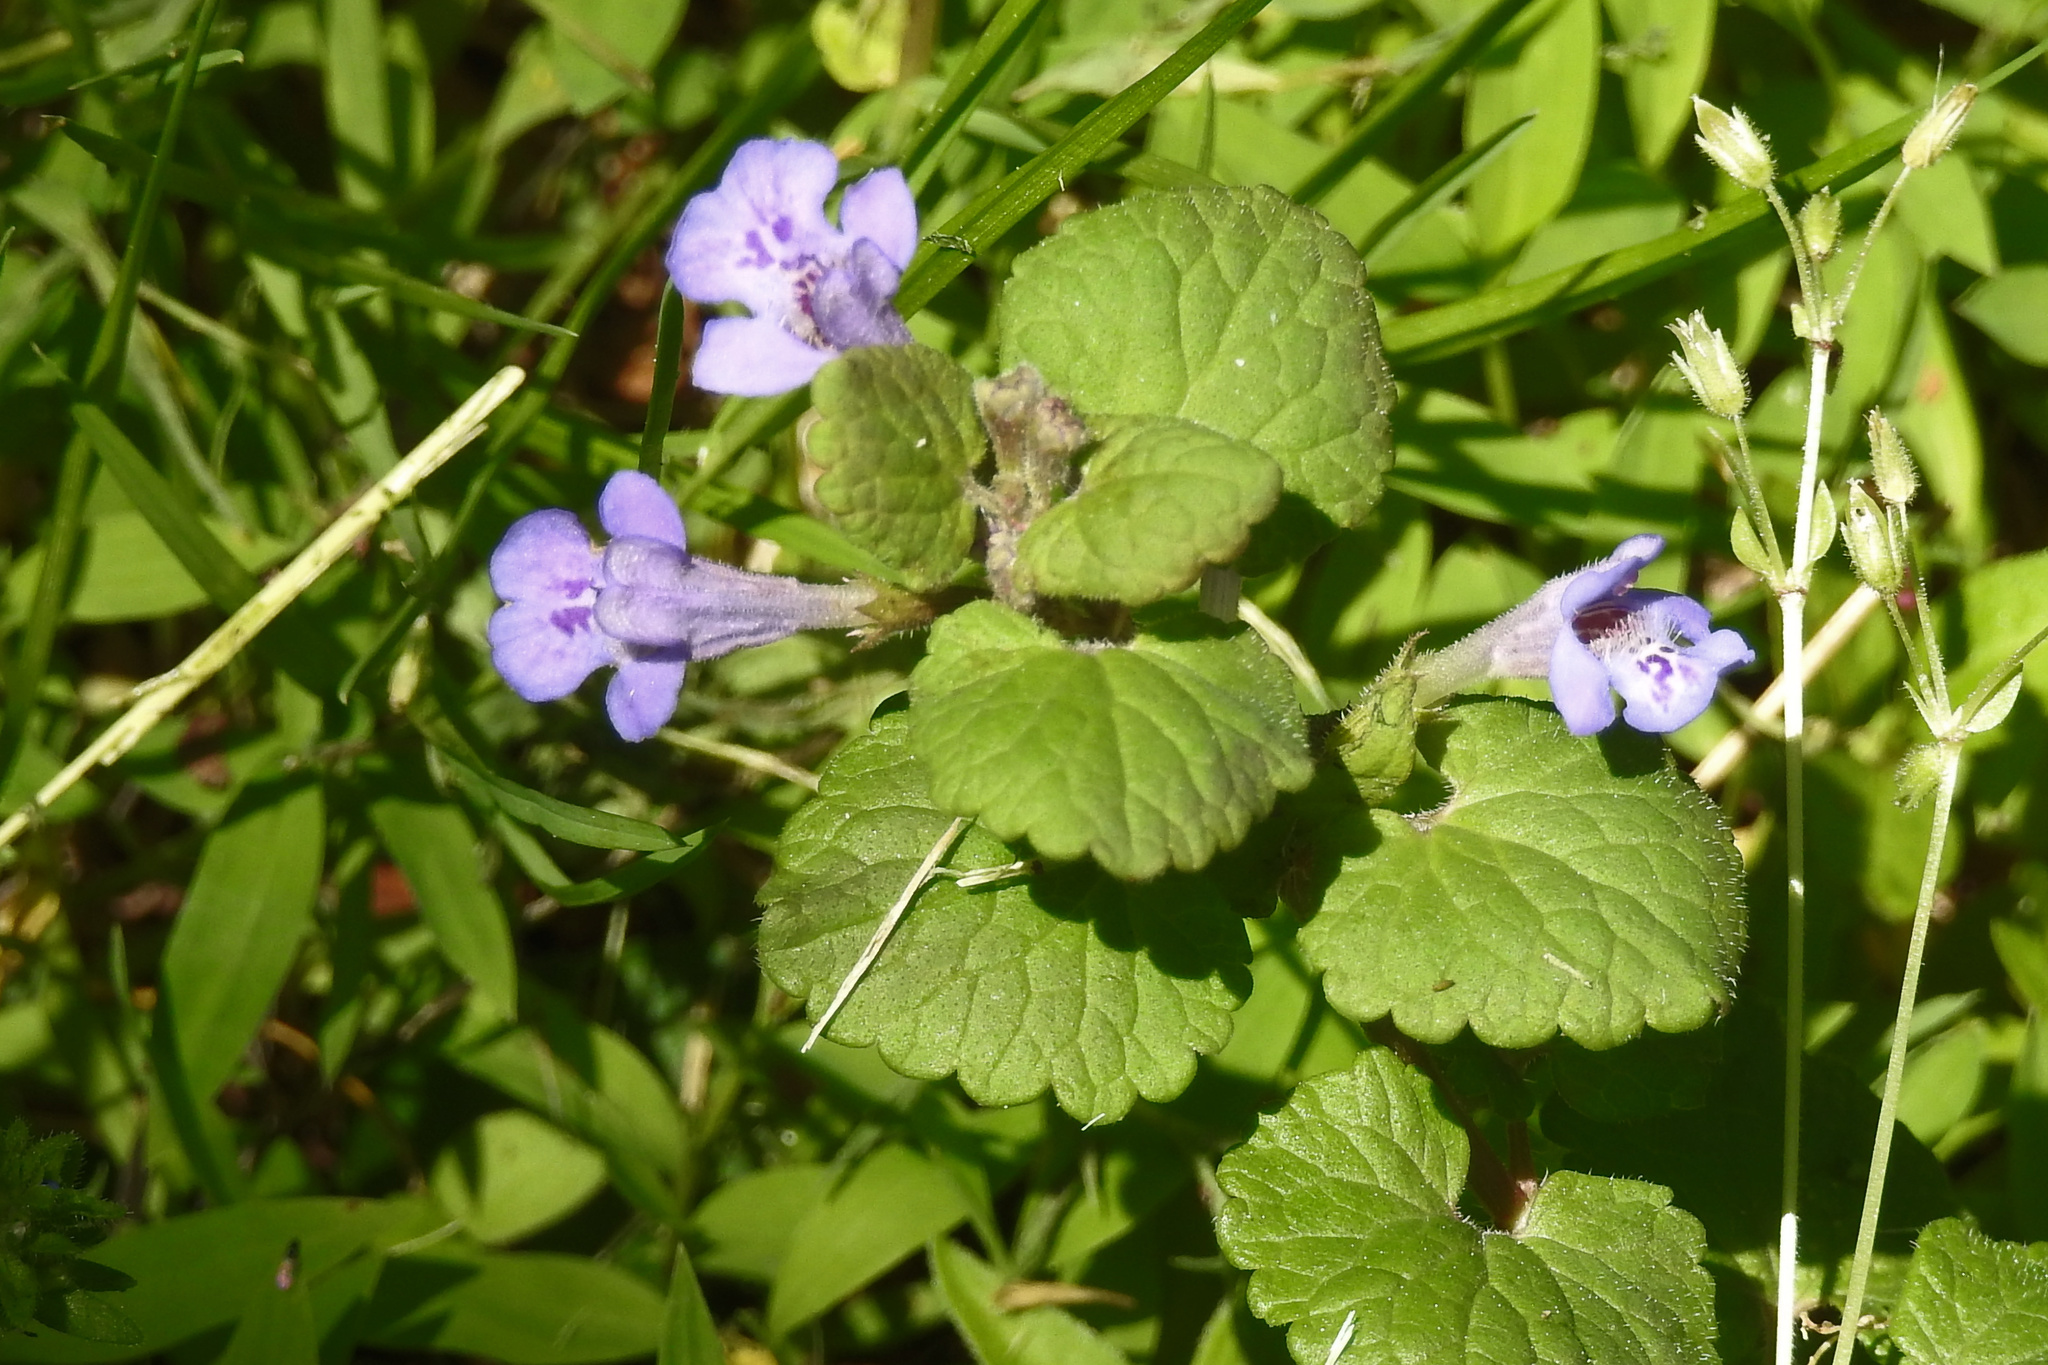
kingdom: Plantae
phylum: Tracheophyta
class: Magnoliopsida
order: Lamiales
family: Lamiaceae
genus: Glechoma
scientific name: Glechoma hederacea
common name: Ground ivy
